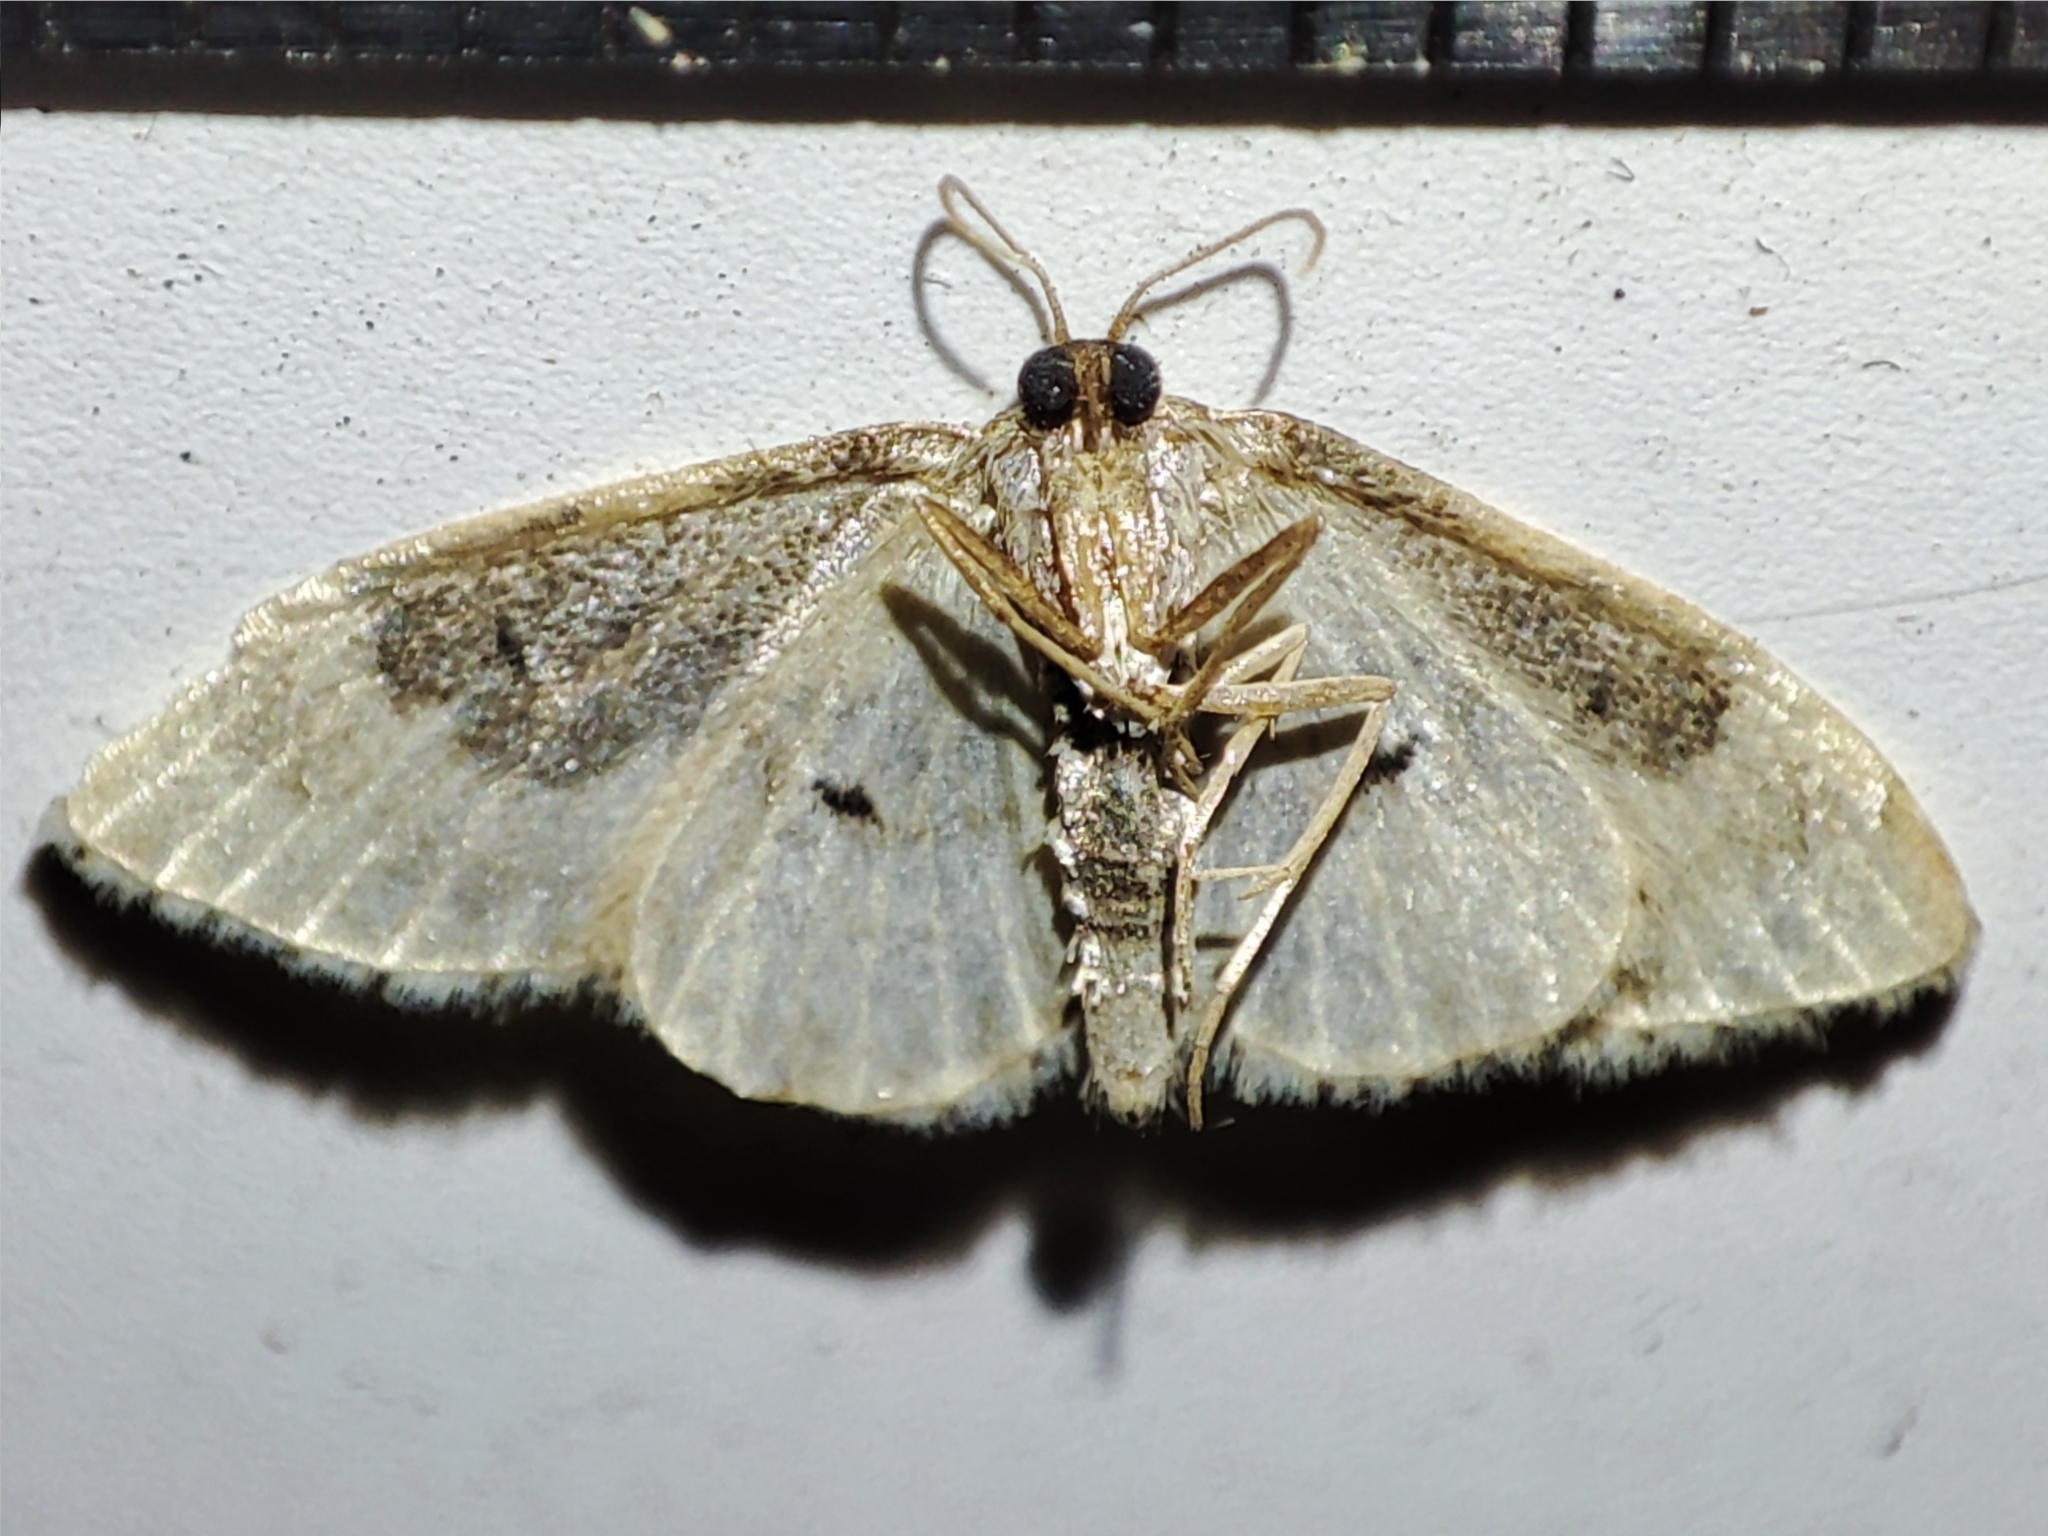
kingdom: Animalia
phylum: Arthropoda
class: Insecta
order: Lepidoptera
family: Geometridae
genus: Idaea
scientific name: Idaea rusticata
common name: Least carpet
